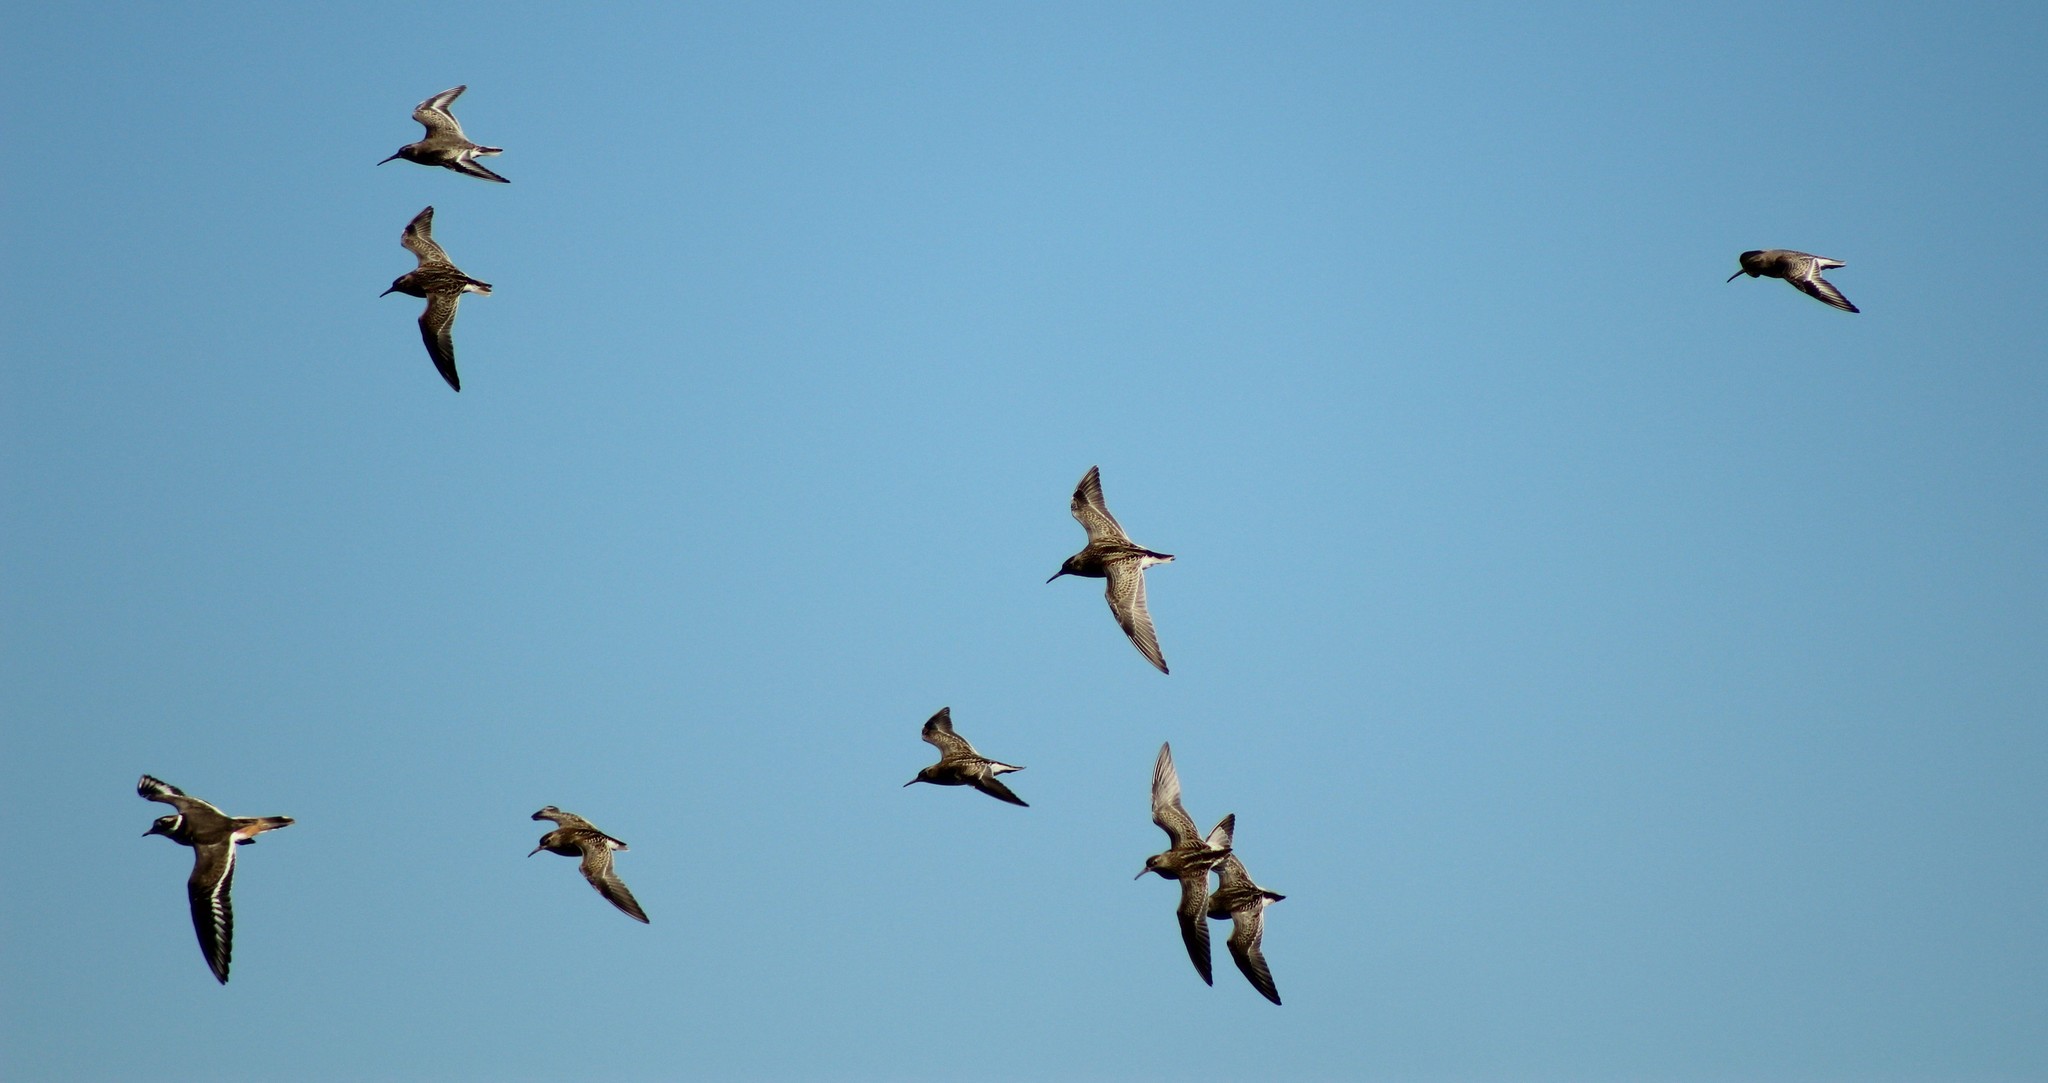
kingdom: Animalia
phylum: Chordata
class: Aves
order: Charadriiformes
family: Charadriidae
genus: Charadrius
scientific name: Charadrius vociferus
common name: Killdeer
